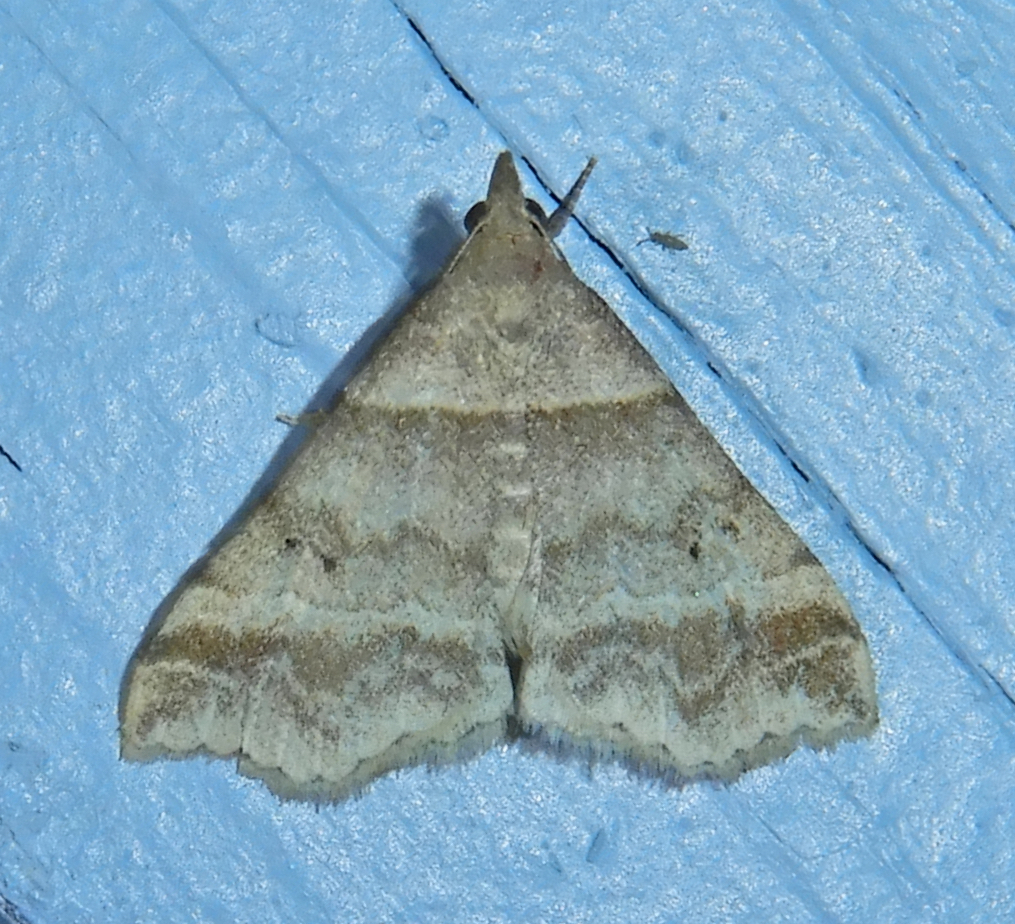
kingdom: Animalia
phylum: Arthropoda
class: Insecta
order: Lepidoptera
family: Erebidae
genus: Phaeolita
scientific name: Phaeolita pyramusalis
